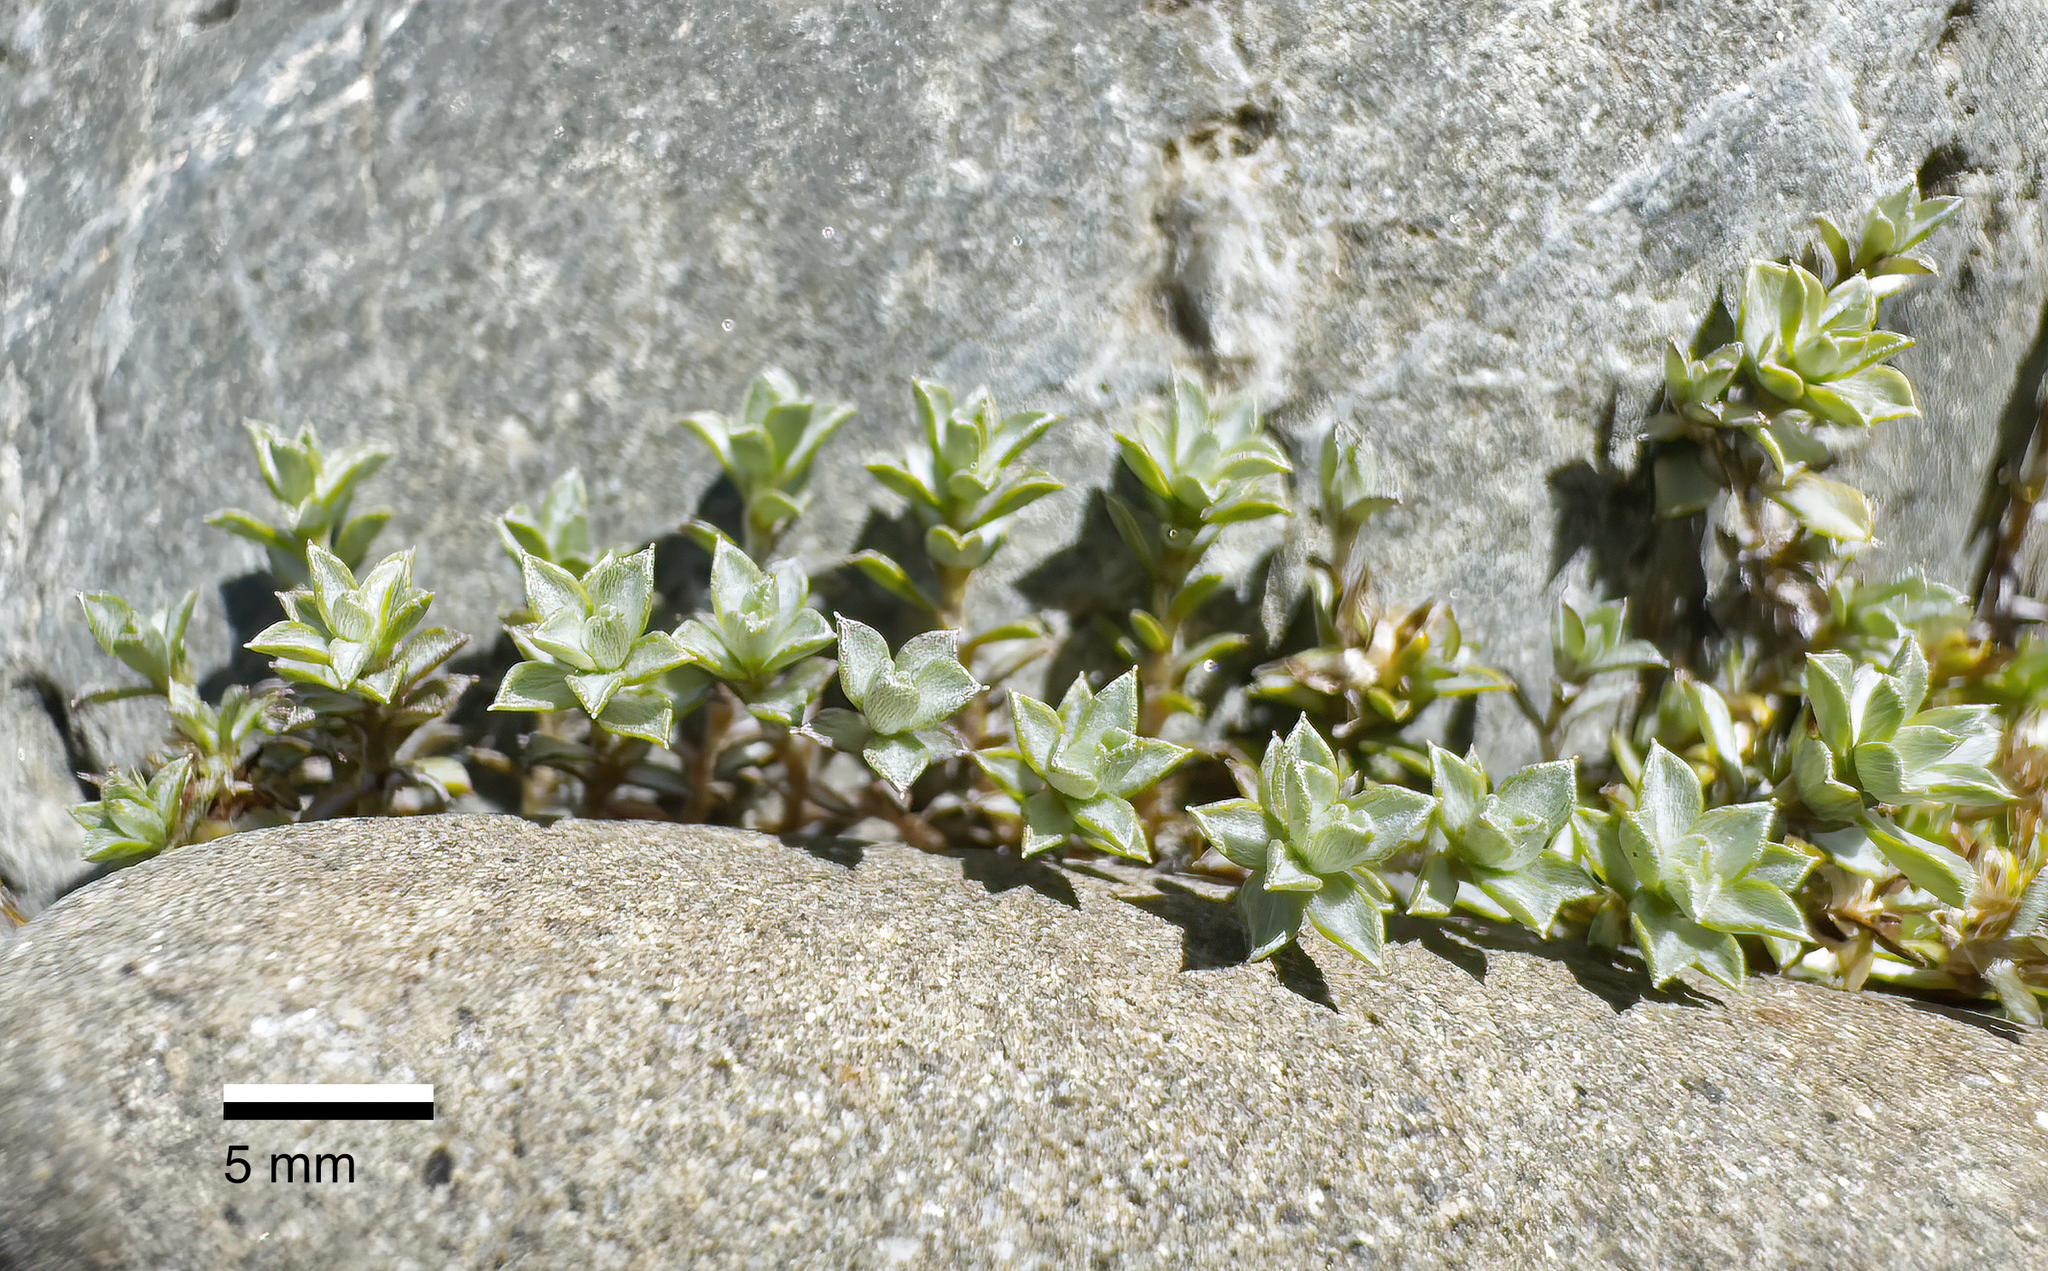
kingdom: Plantae
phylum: Tracheophyta
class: Magnoliopsida
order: Asterales
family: Asteraceae
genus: Raoulia
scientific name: Raoulia tenuicaulis
